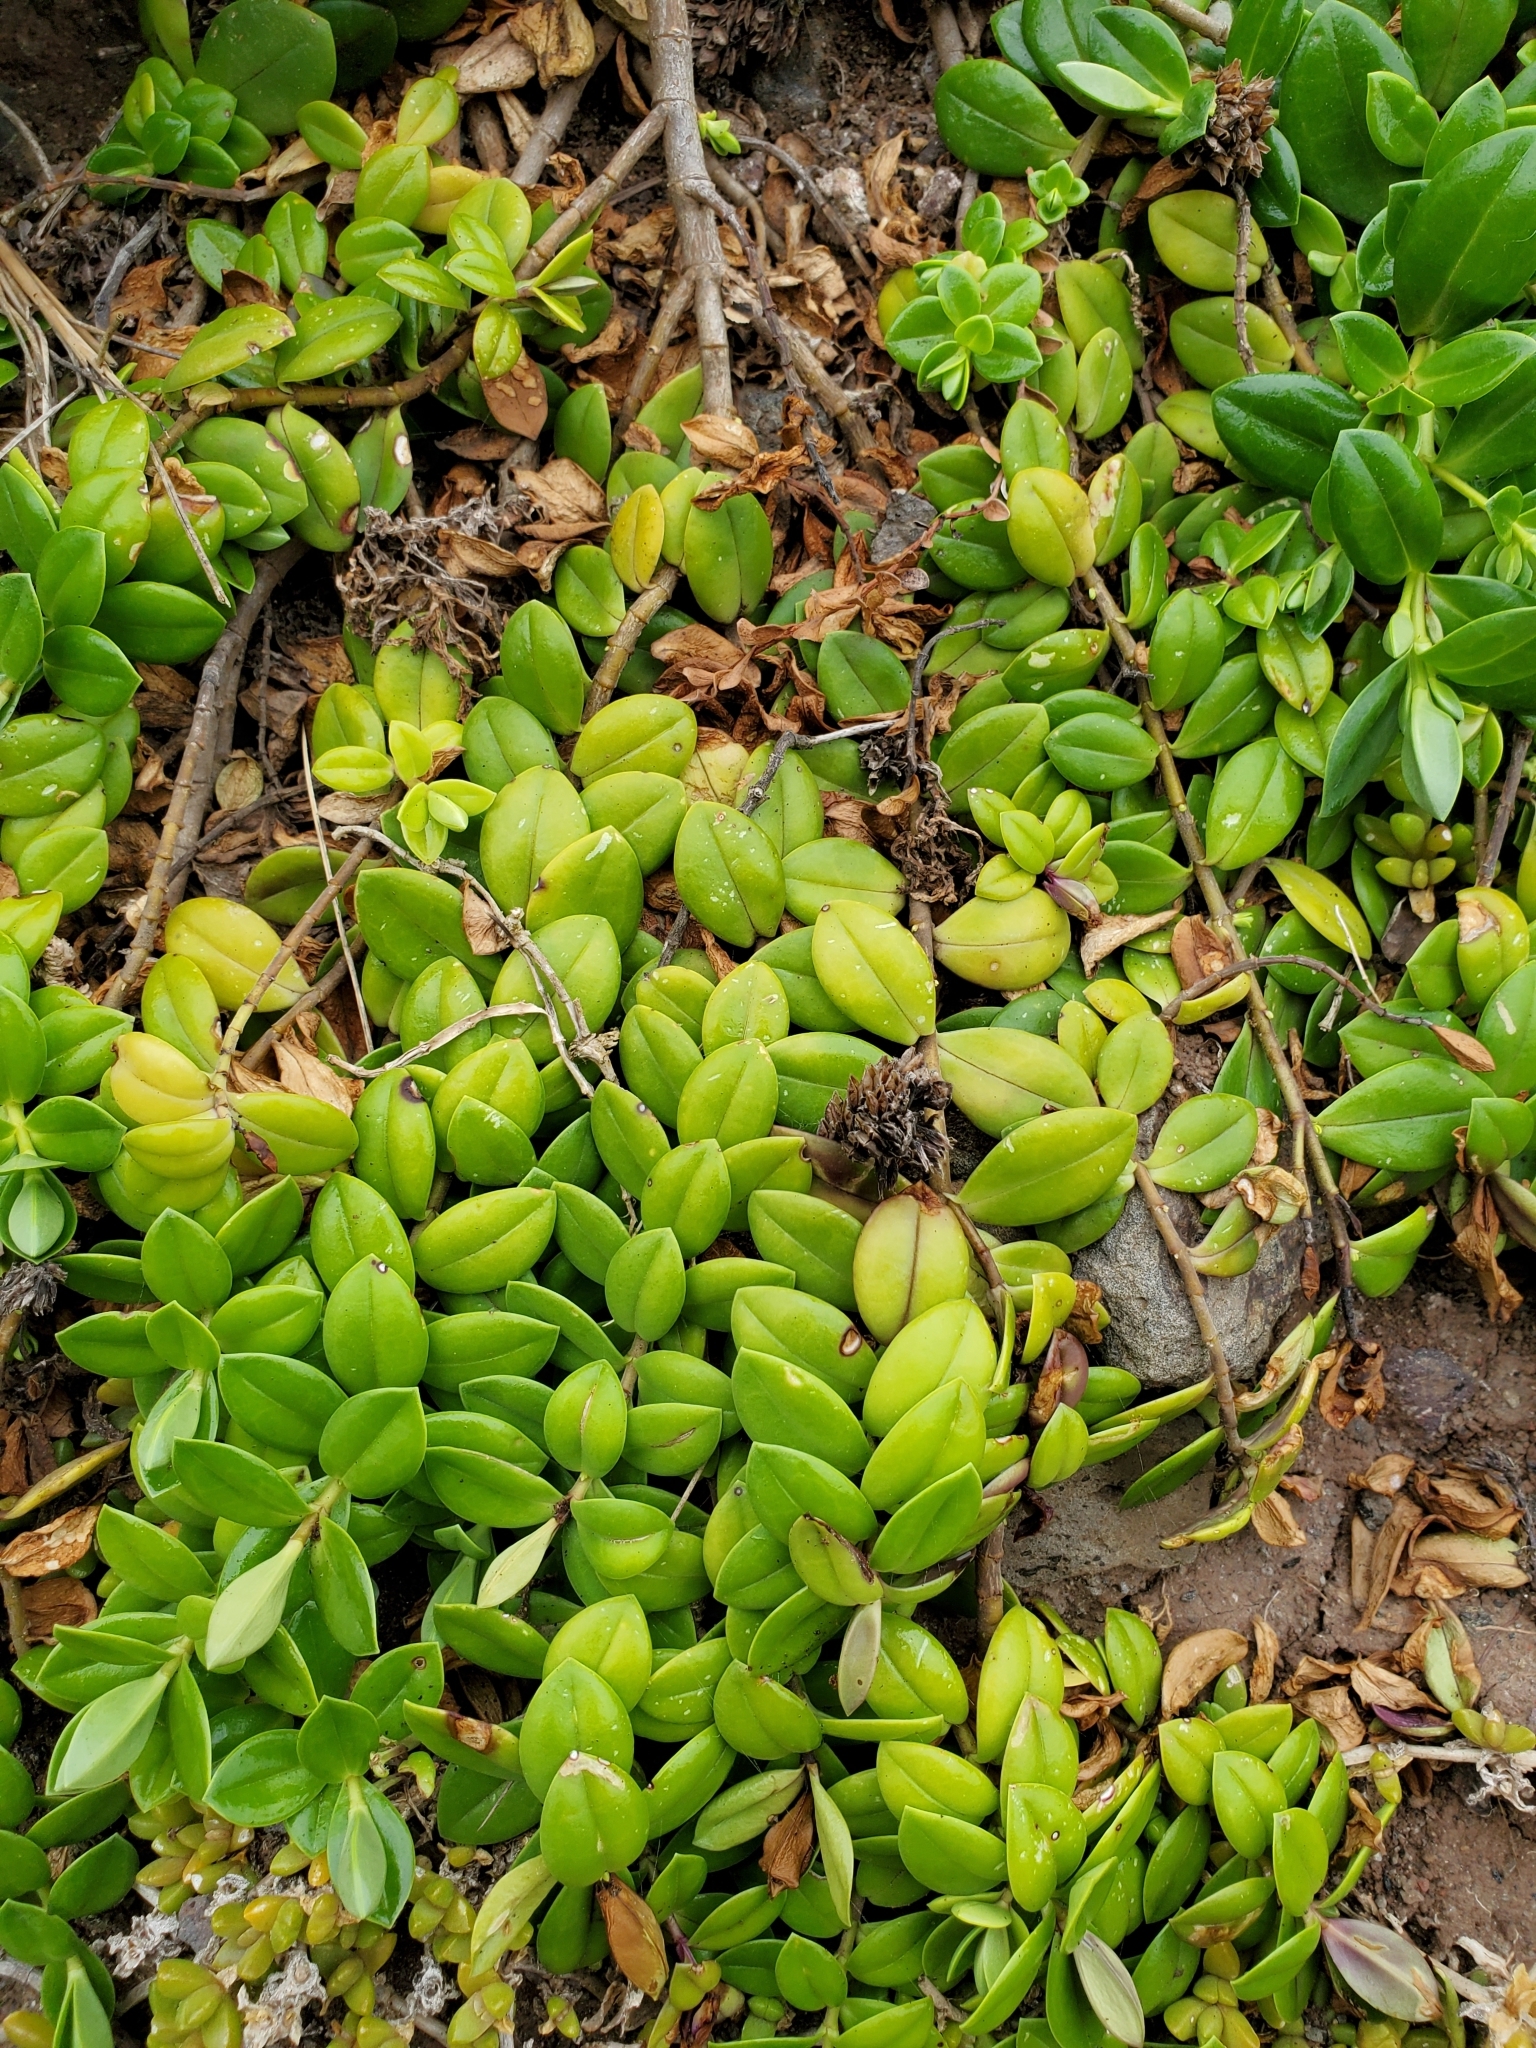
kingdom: Plantae
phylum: Tracheophyta
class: Magnoliopsida
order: Lamiales
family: Plantaginaceae
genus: Veronica
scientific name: Veronica chathamica
